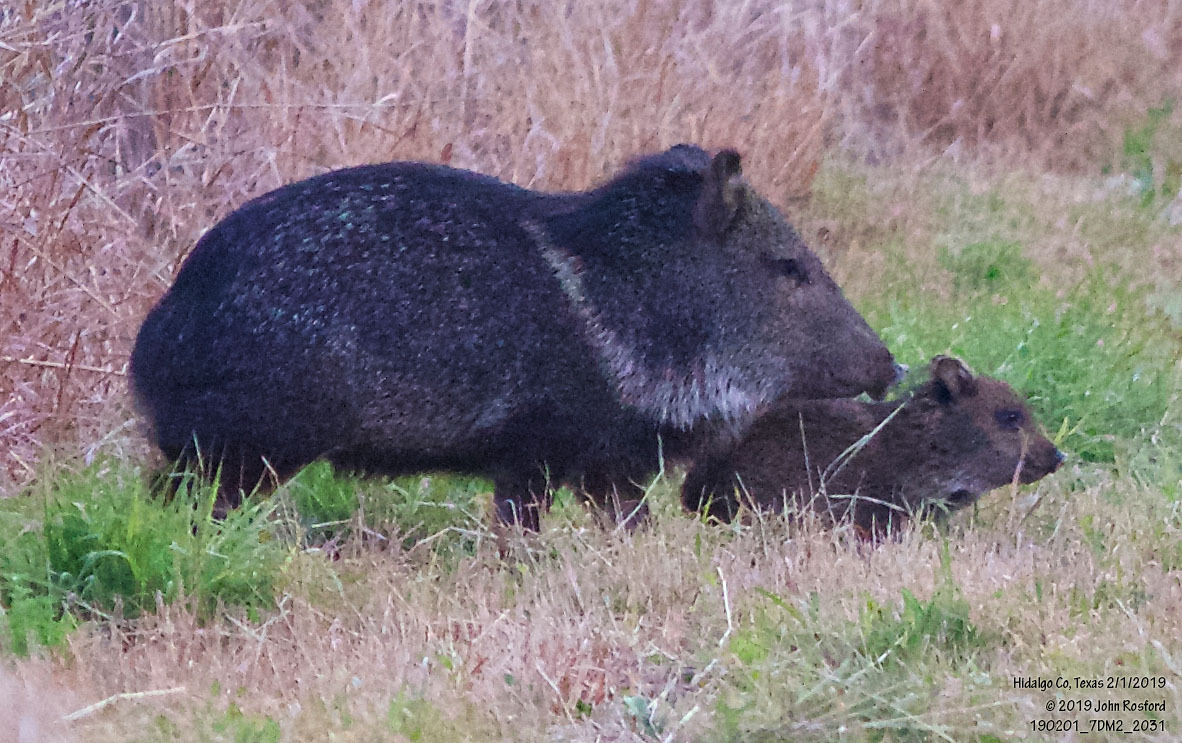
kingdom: Animalia
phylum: Chordata
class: Mammalia
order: Artiodactyla
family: Tayassuidae
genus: Pecari
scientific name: Pecari tajacu
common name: Collared peccary
